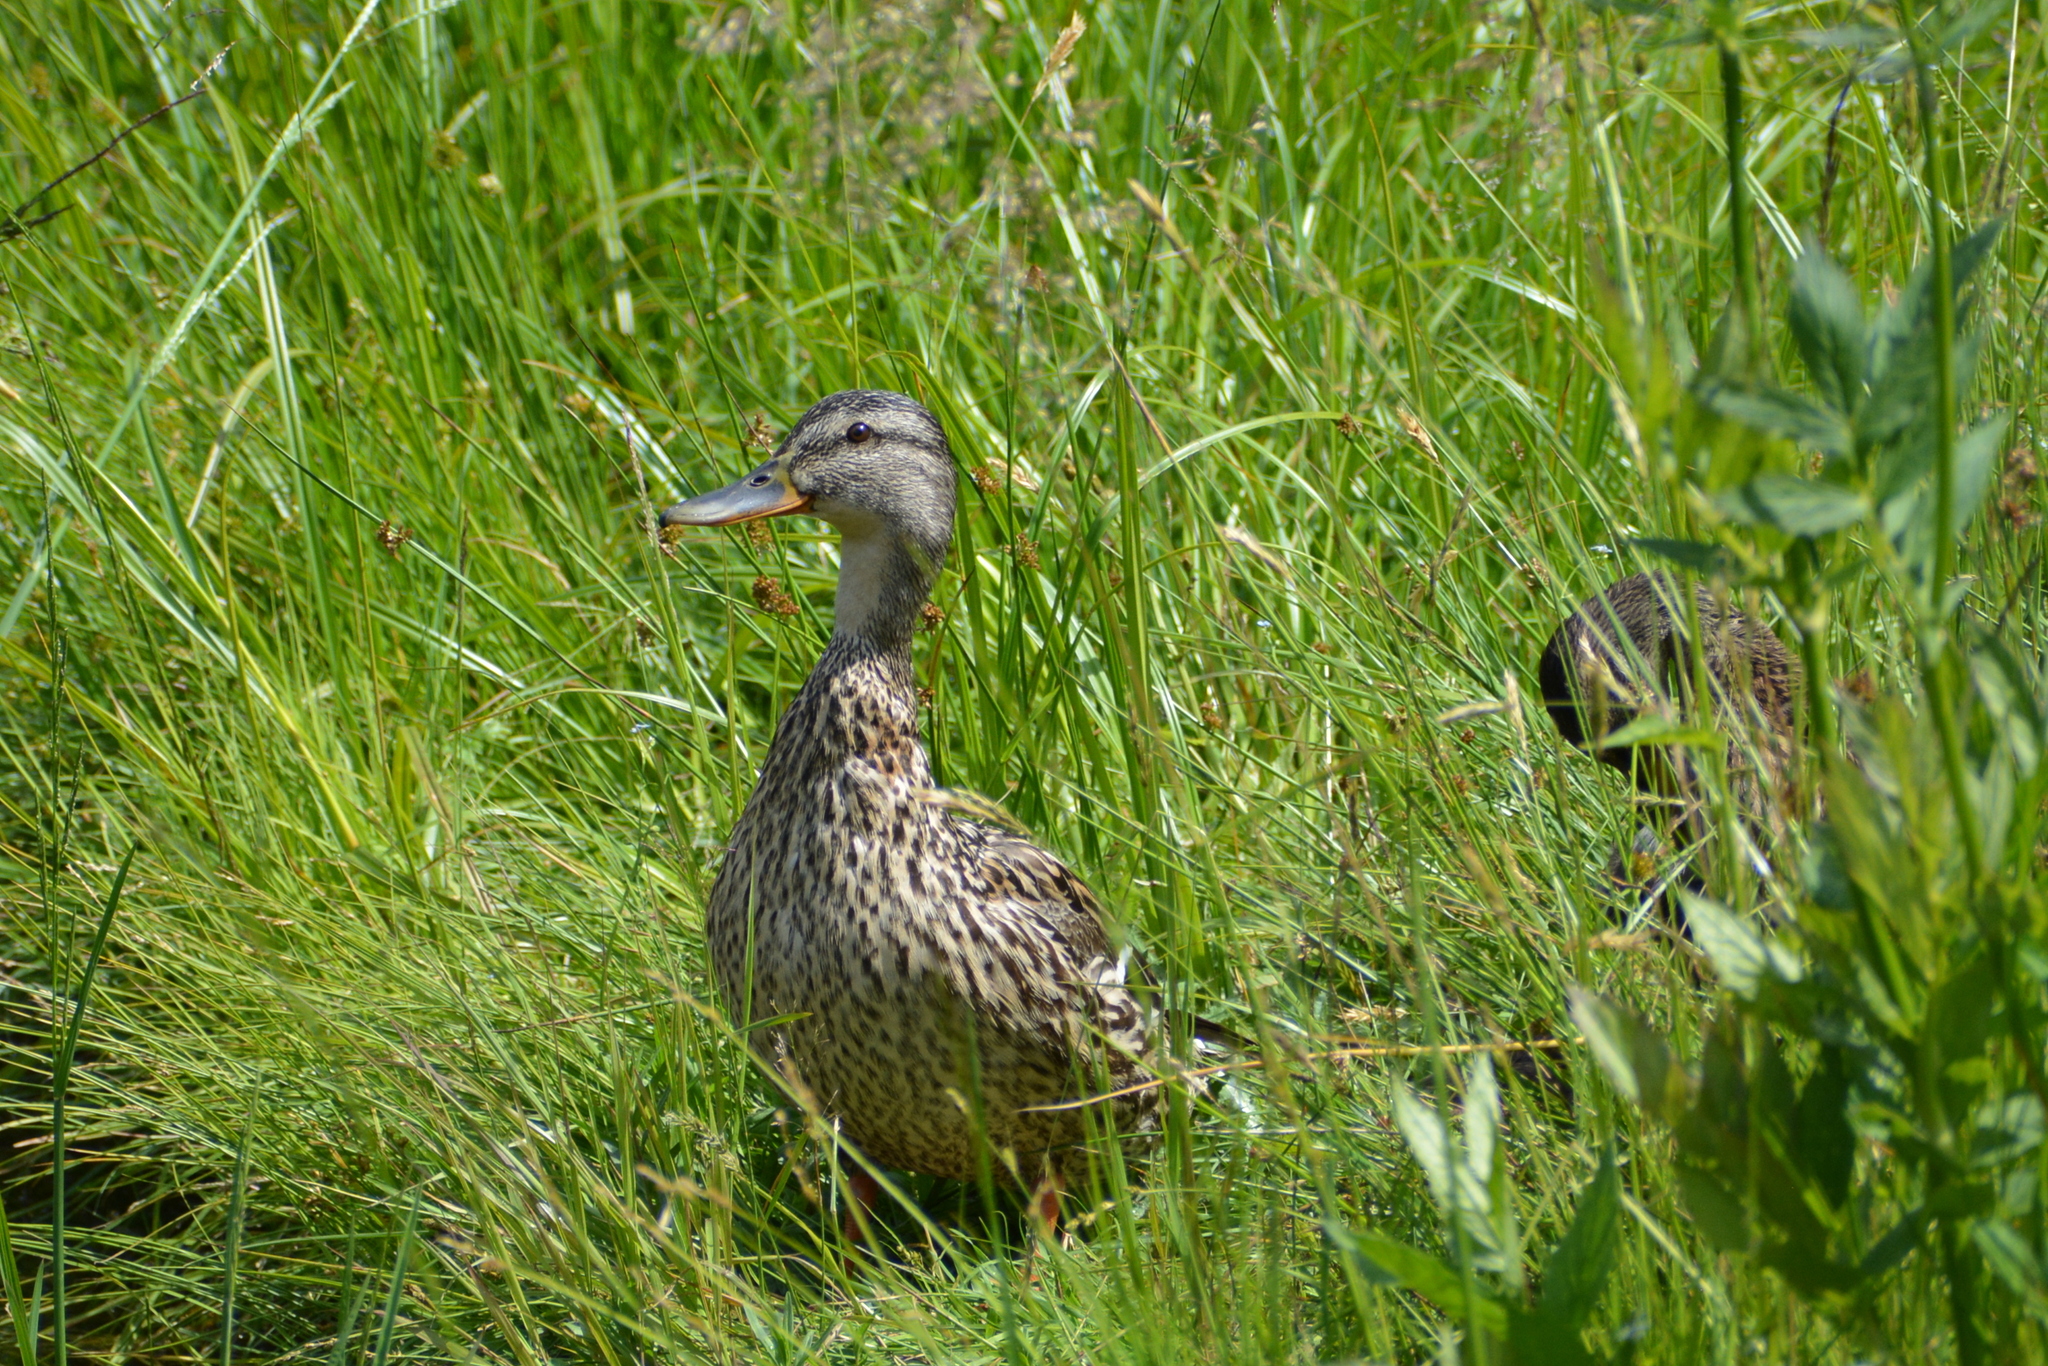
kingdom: Animalia
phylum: Chordata
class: Aves
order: Anseriformes
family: Anatidae
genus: Anas
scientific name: Anas platyrhynchos
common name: Mallard
